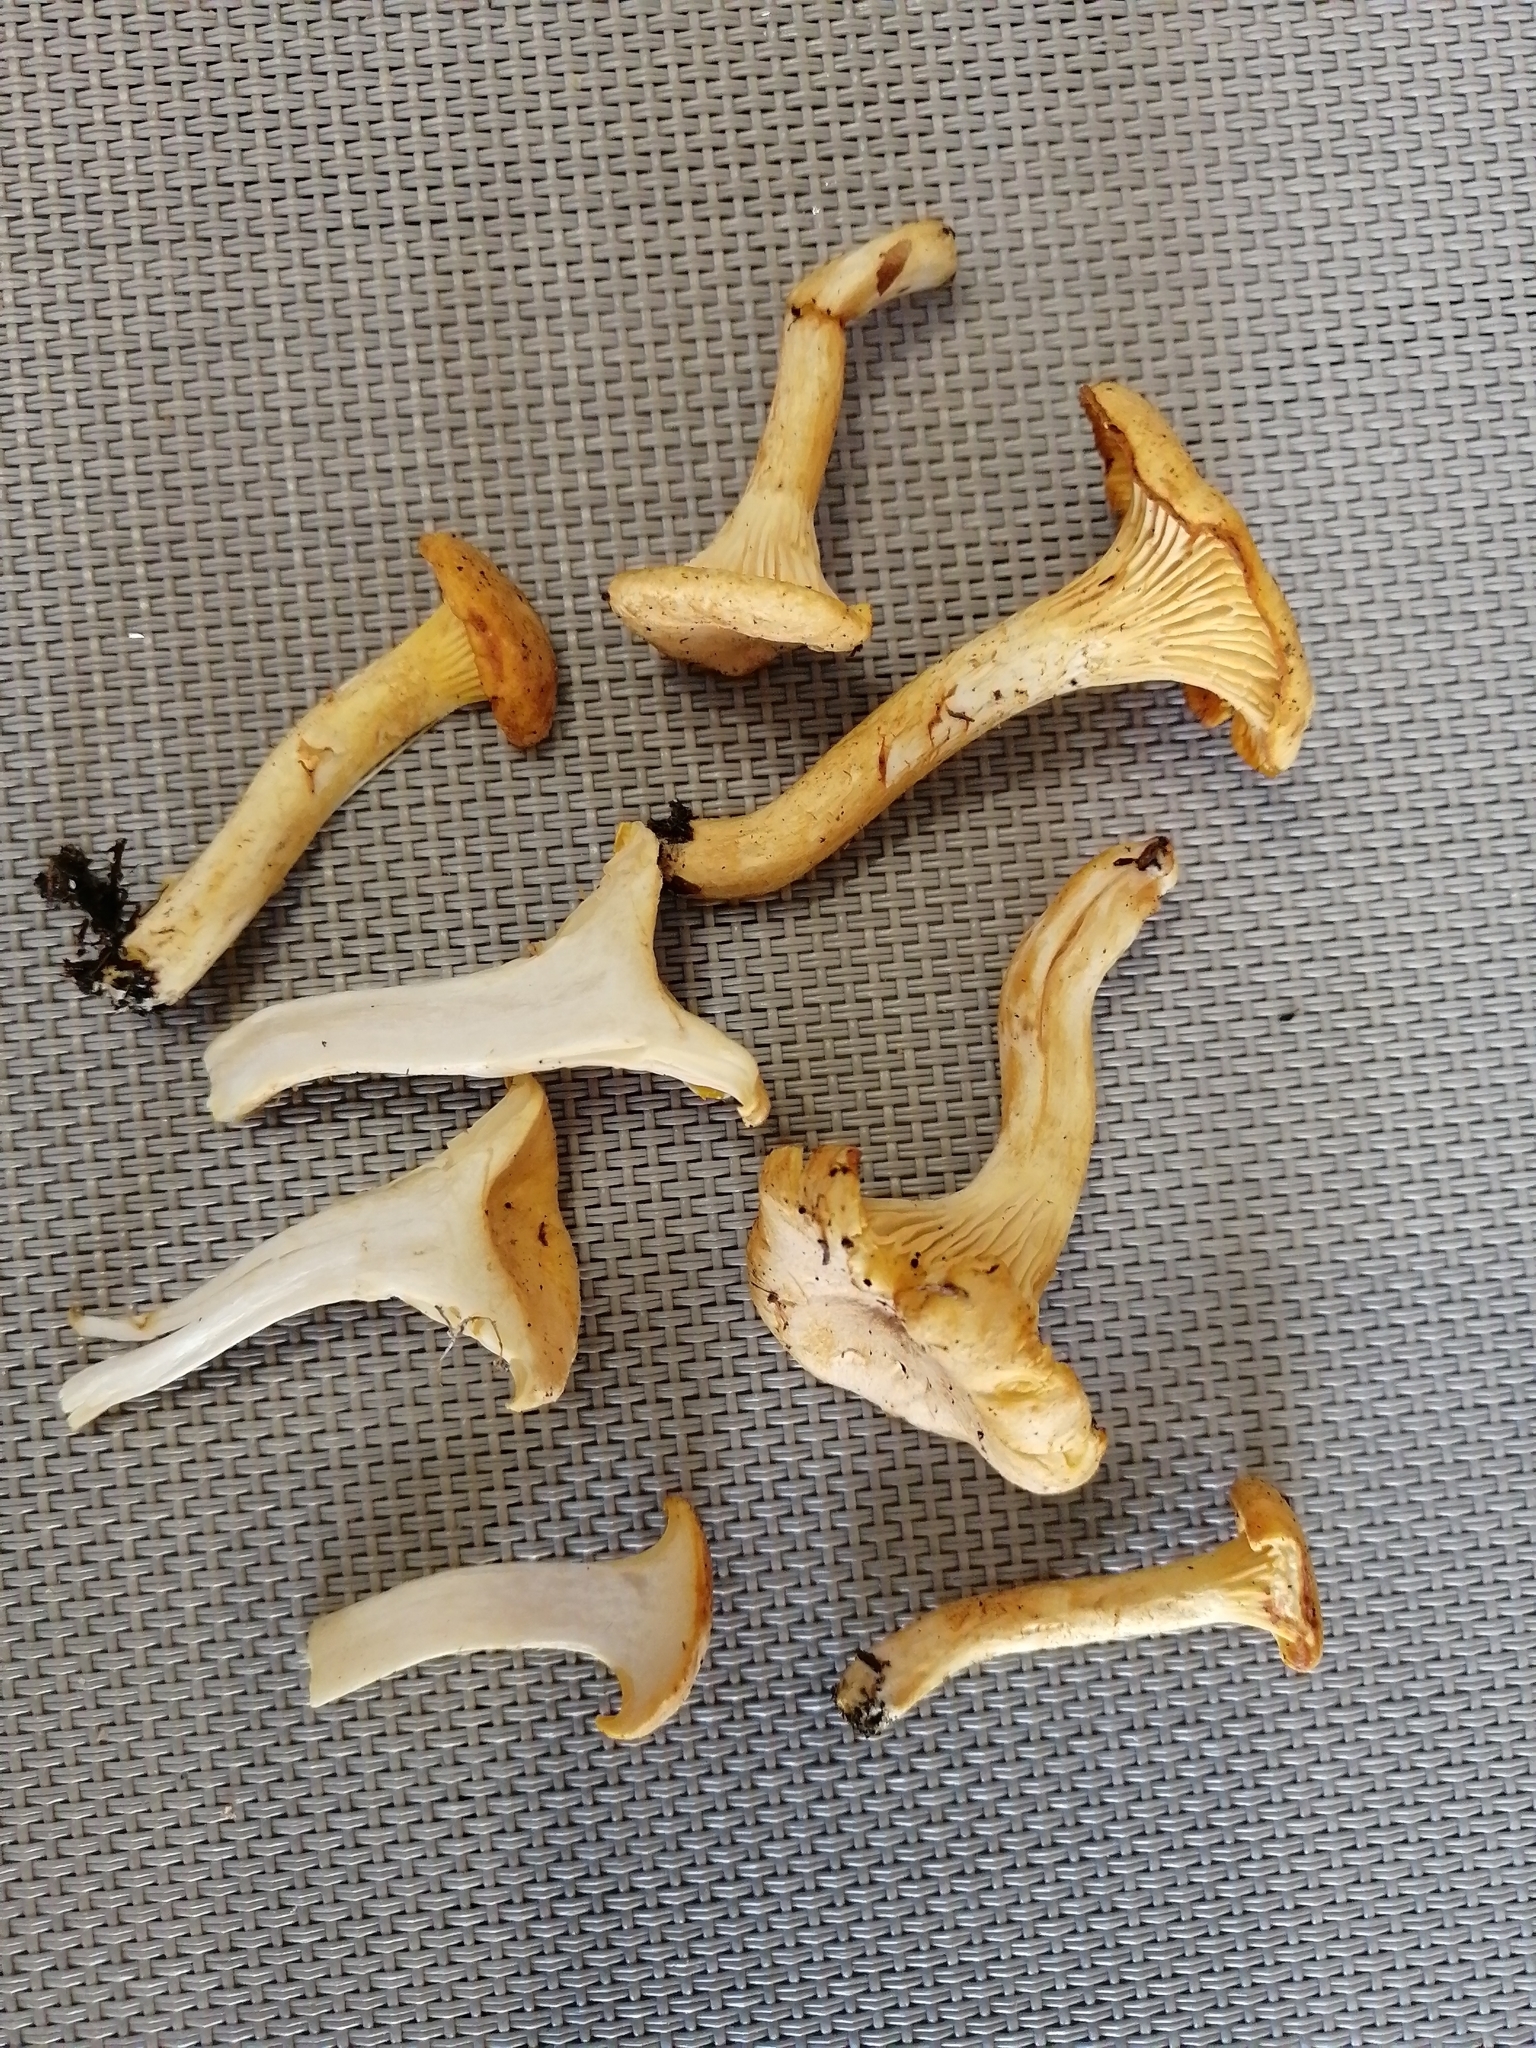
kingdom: Fungi
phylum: Basidiomycota
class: Agaricomycetes
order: Cantharellales
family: Hydnaceae
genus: Cantharellus
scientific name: Cantharellus cibarius
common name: Chanterelle
